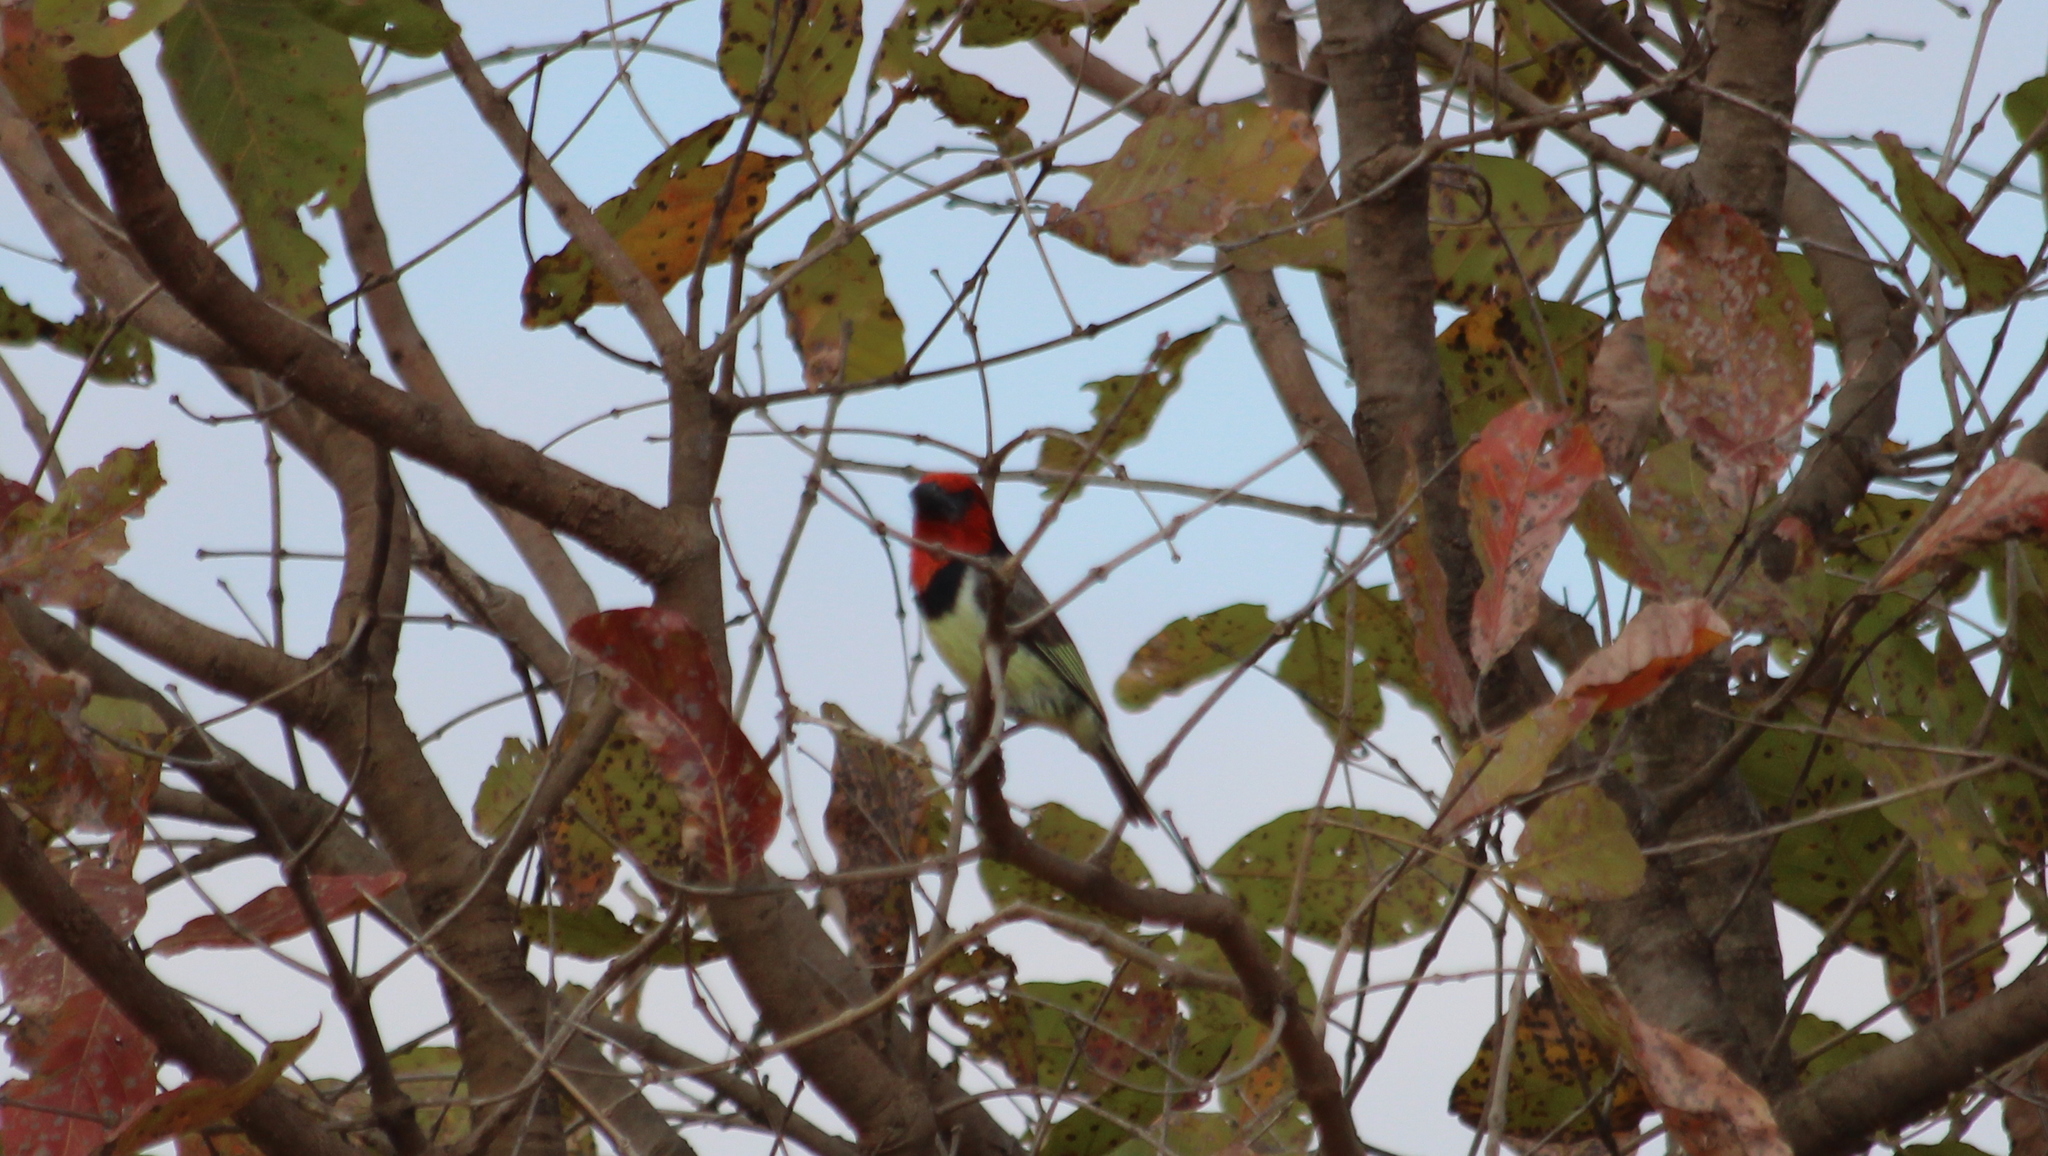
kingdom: Animalia
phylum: Chordata
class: Aves
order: Piciformes
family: Lybiidae
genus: Lybius
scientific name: Lybius torquatus
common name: Black-collared barbet
